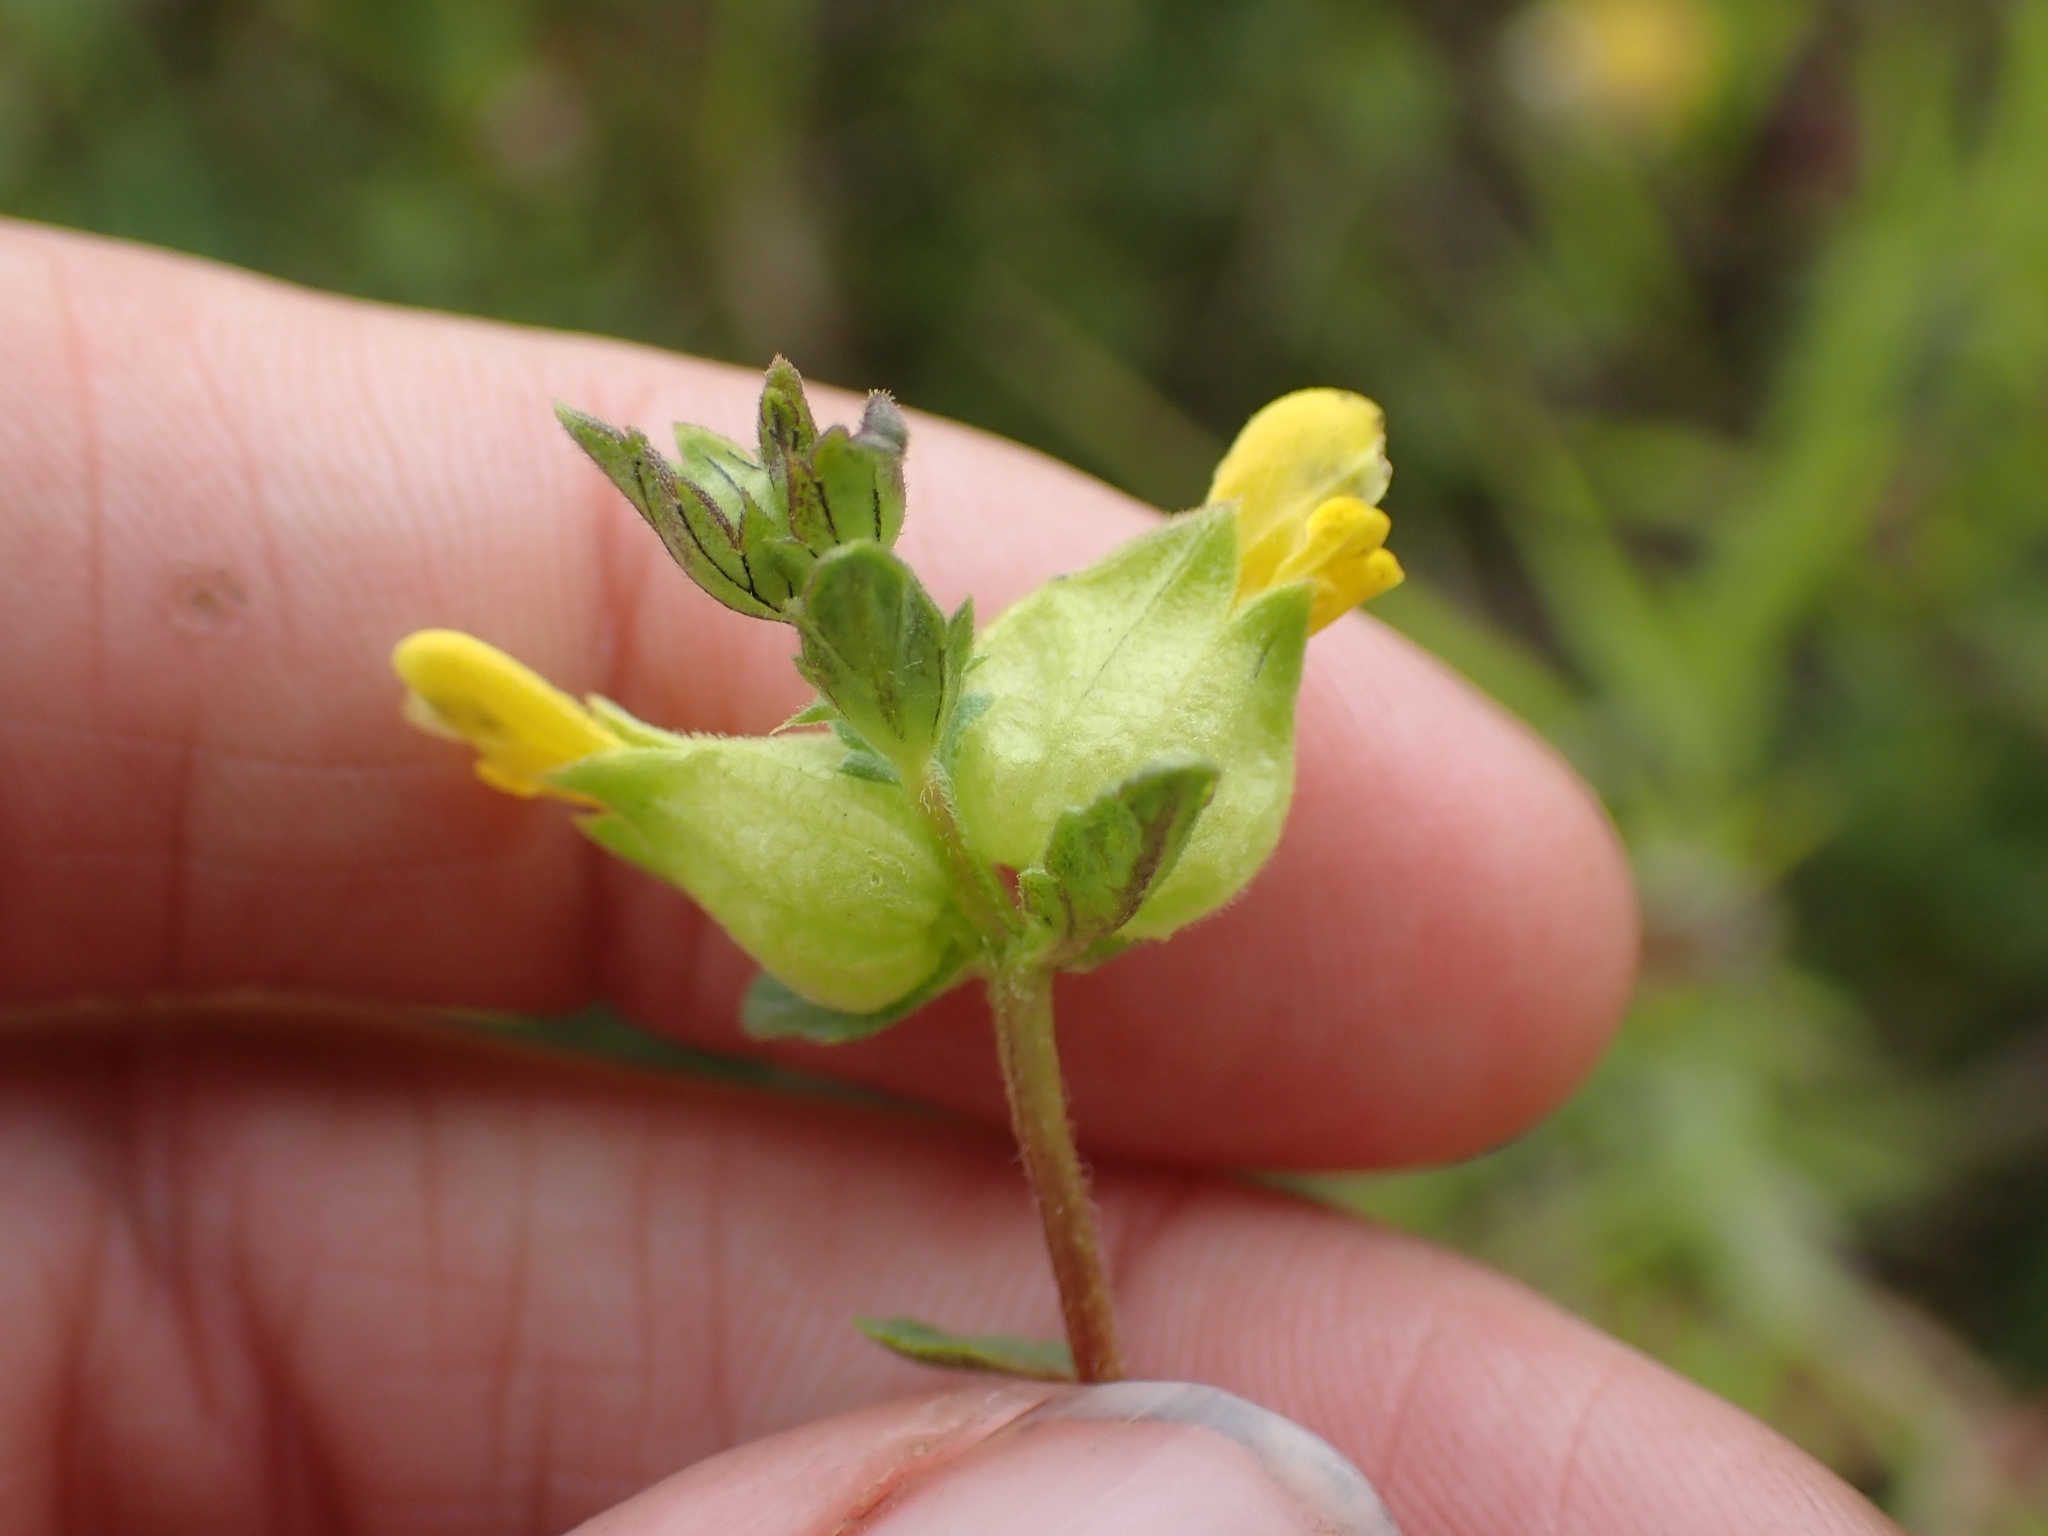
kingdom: Plantae
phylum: Tracheophyta
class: Magnoliopsida
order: Lamiales
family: Orobanchaceae
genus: Rhinanthus
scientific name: Rhinanthus minor
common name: Yellow-rattle
